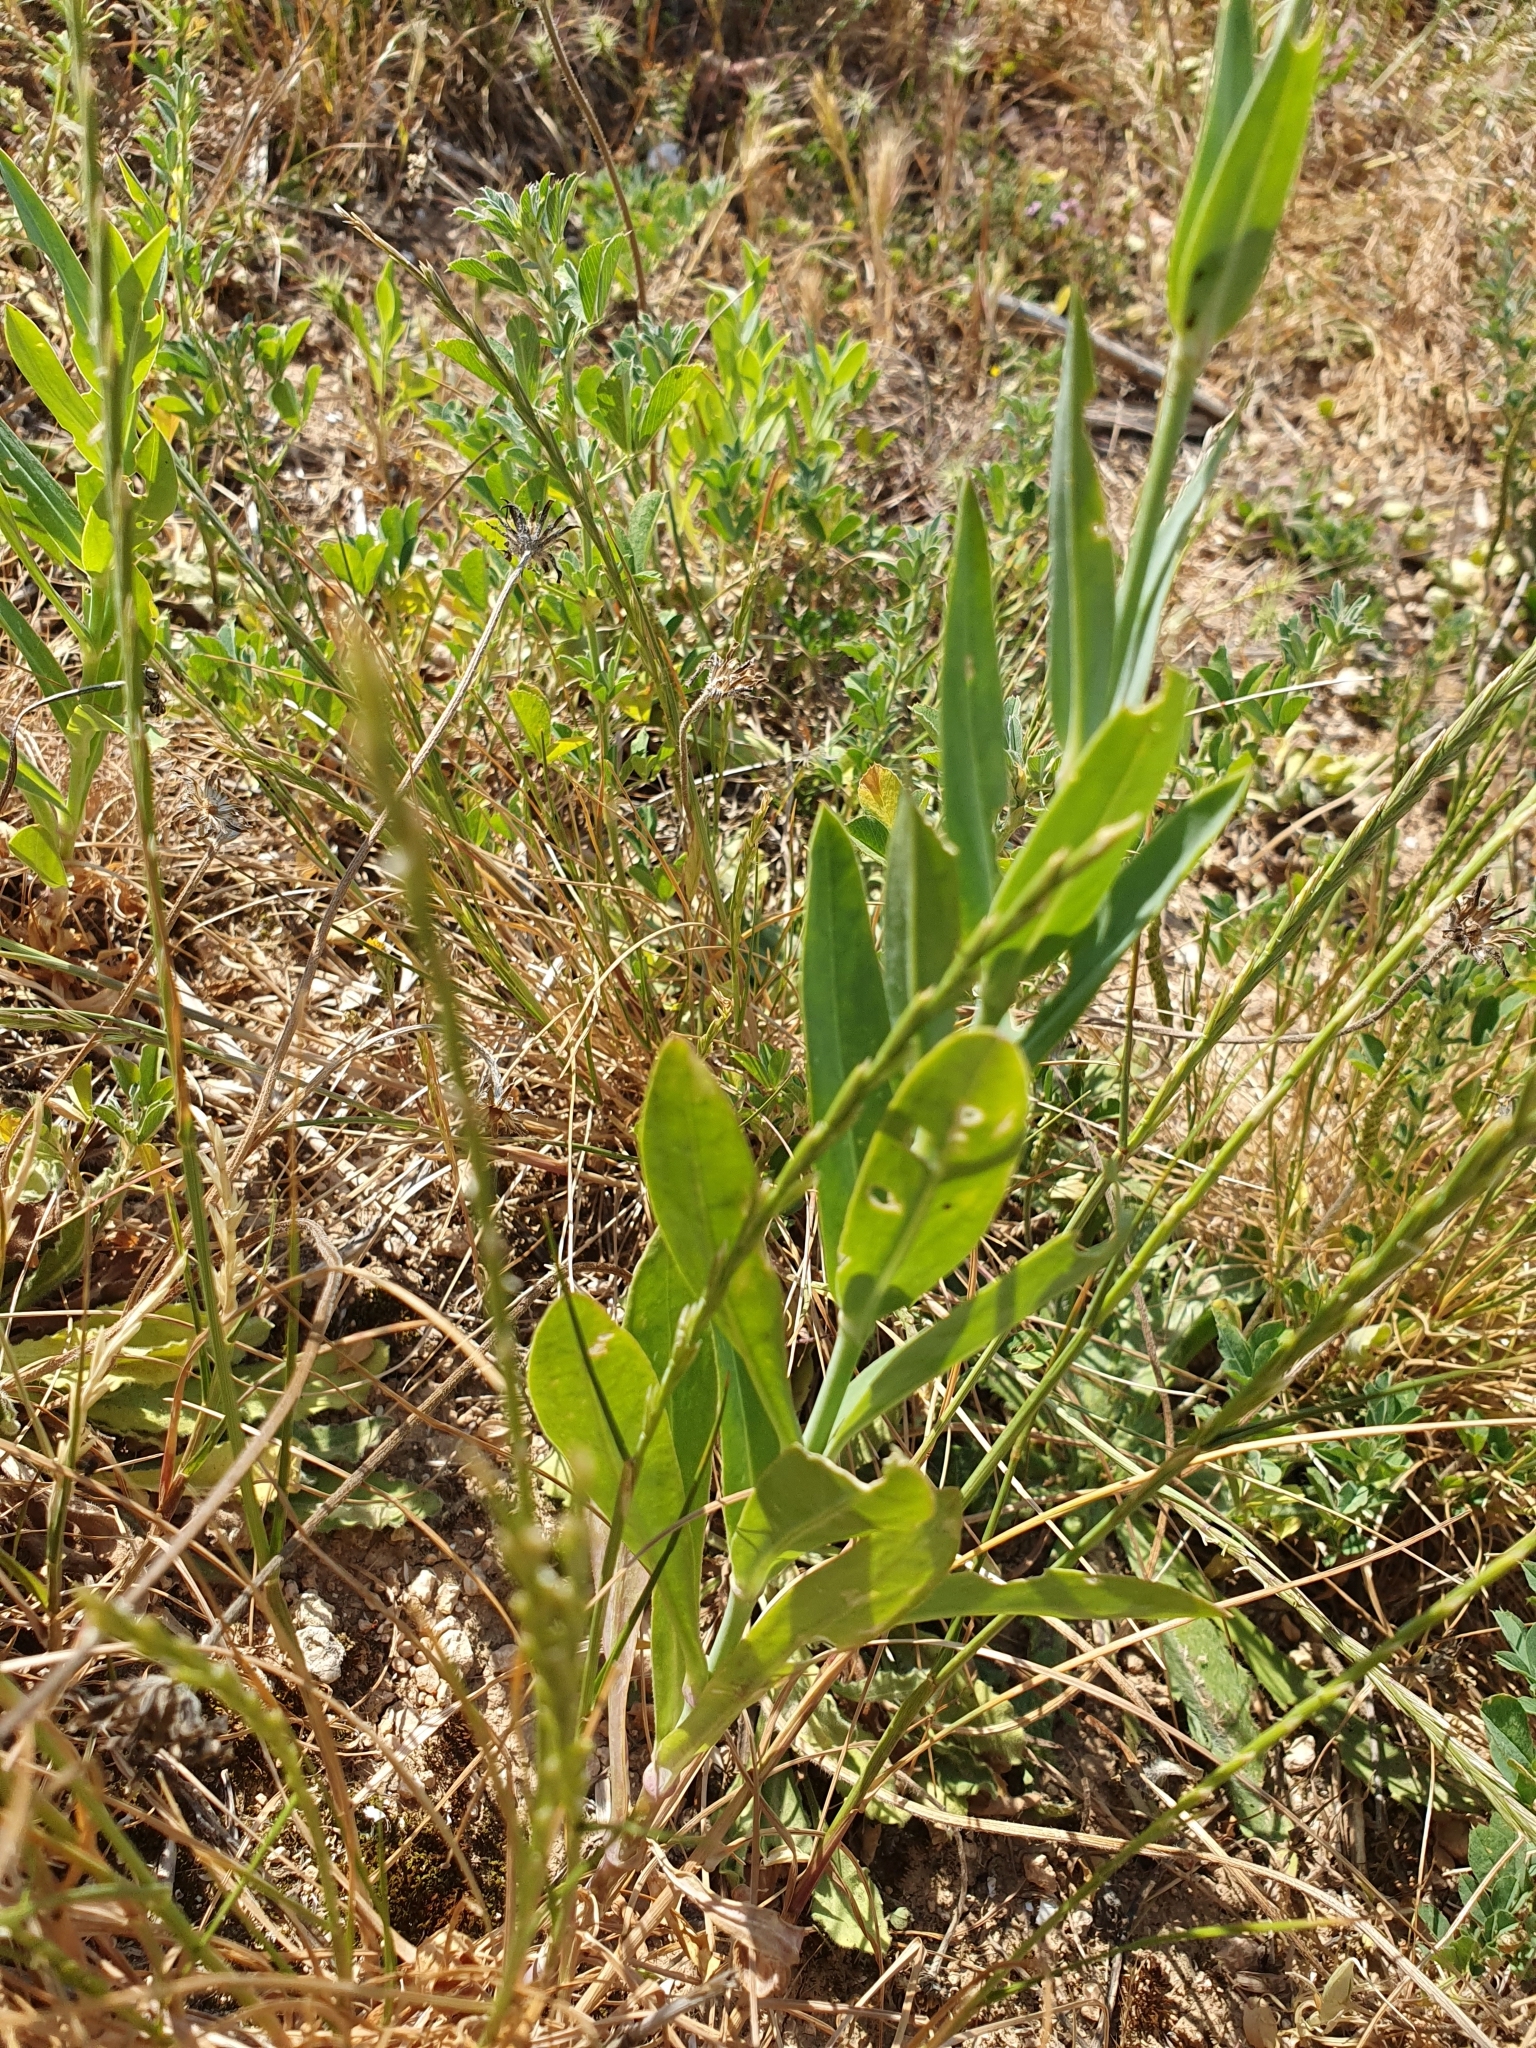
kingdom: Plantae
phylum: Tracheophyta
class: Magnoliopsida
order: Caryophyllales
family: Caryophyllaceae
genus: Silene
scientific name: Silene vulgaris
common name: Bladder campion
